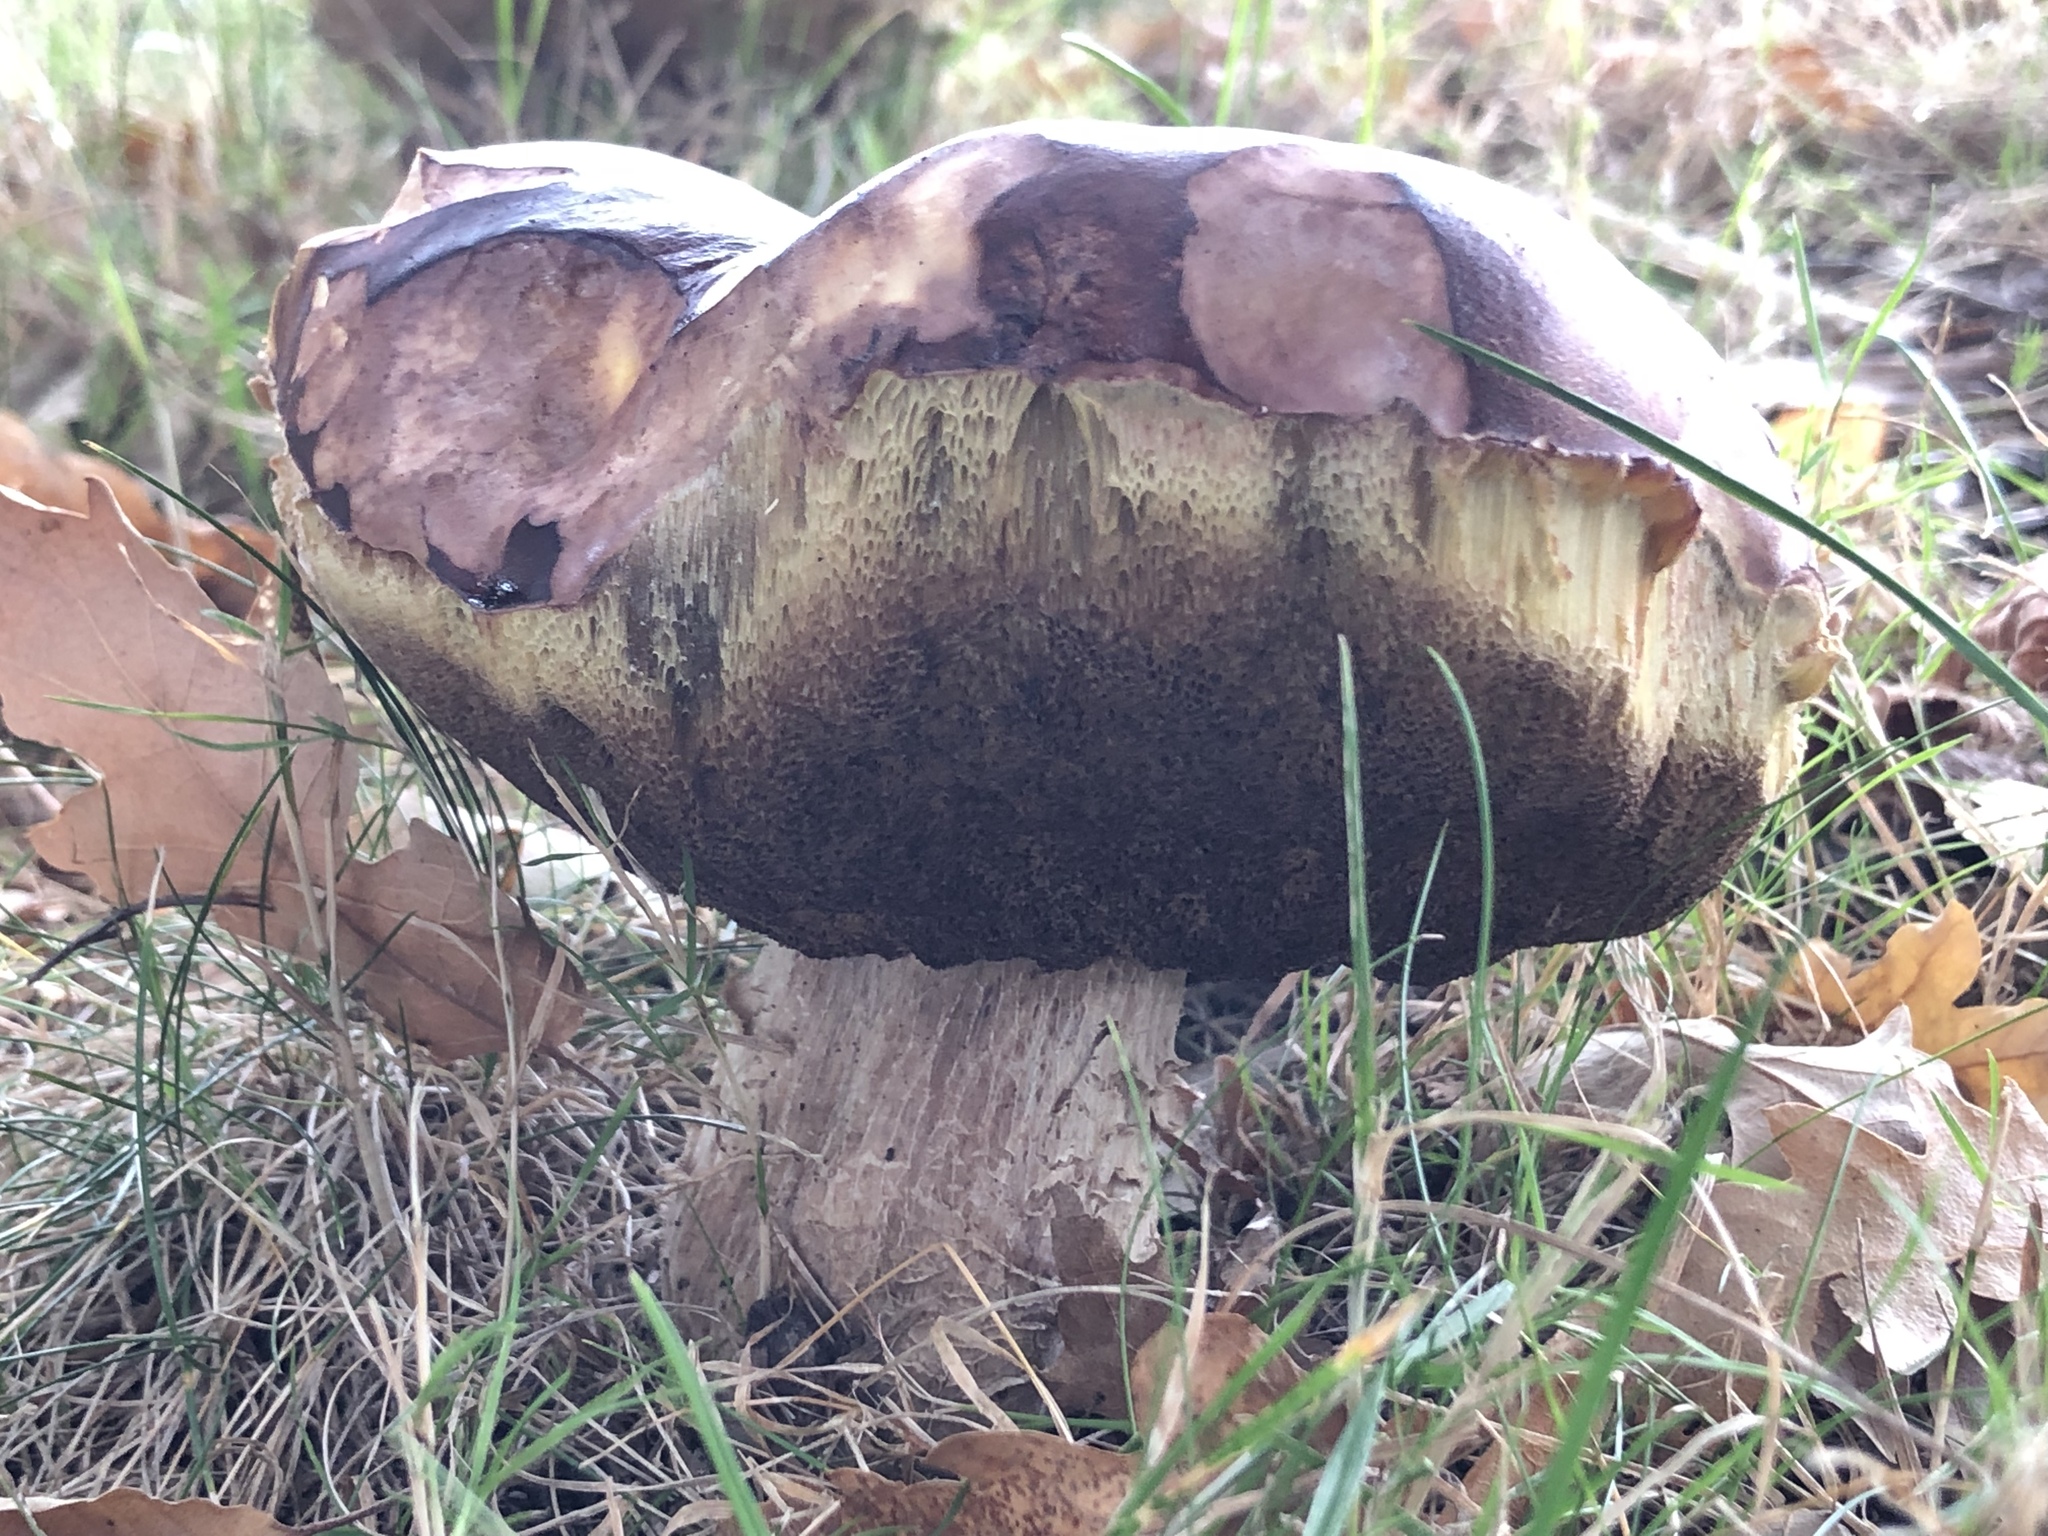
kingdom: Fungi
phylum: Basidiomycota
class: Agaricomycetes
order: Boletales
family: Boletaceae
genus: Boletus
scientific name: Boletus edulis
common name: Cep
